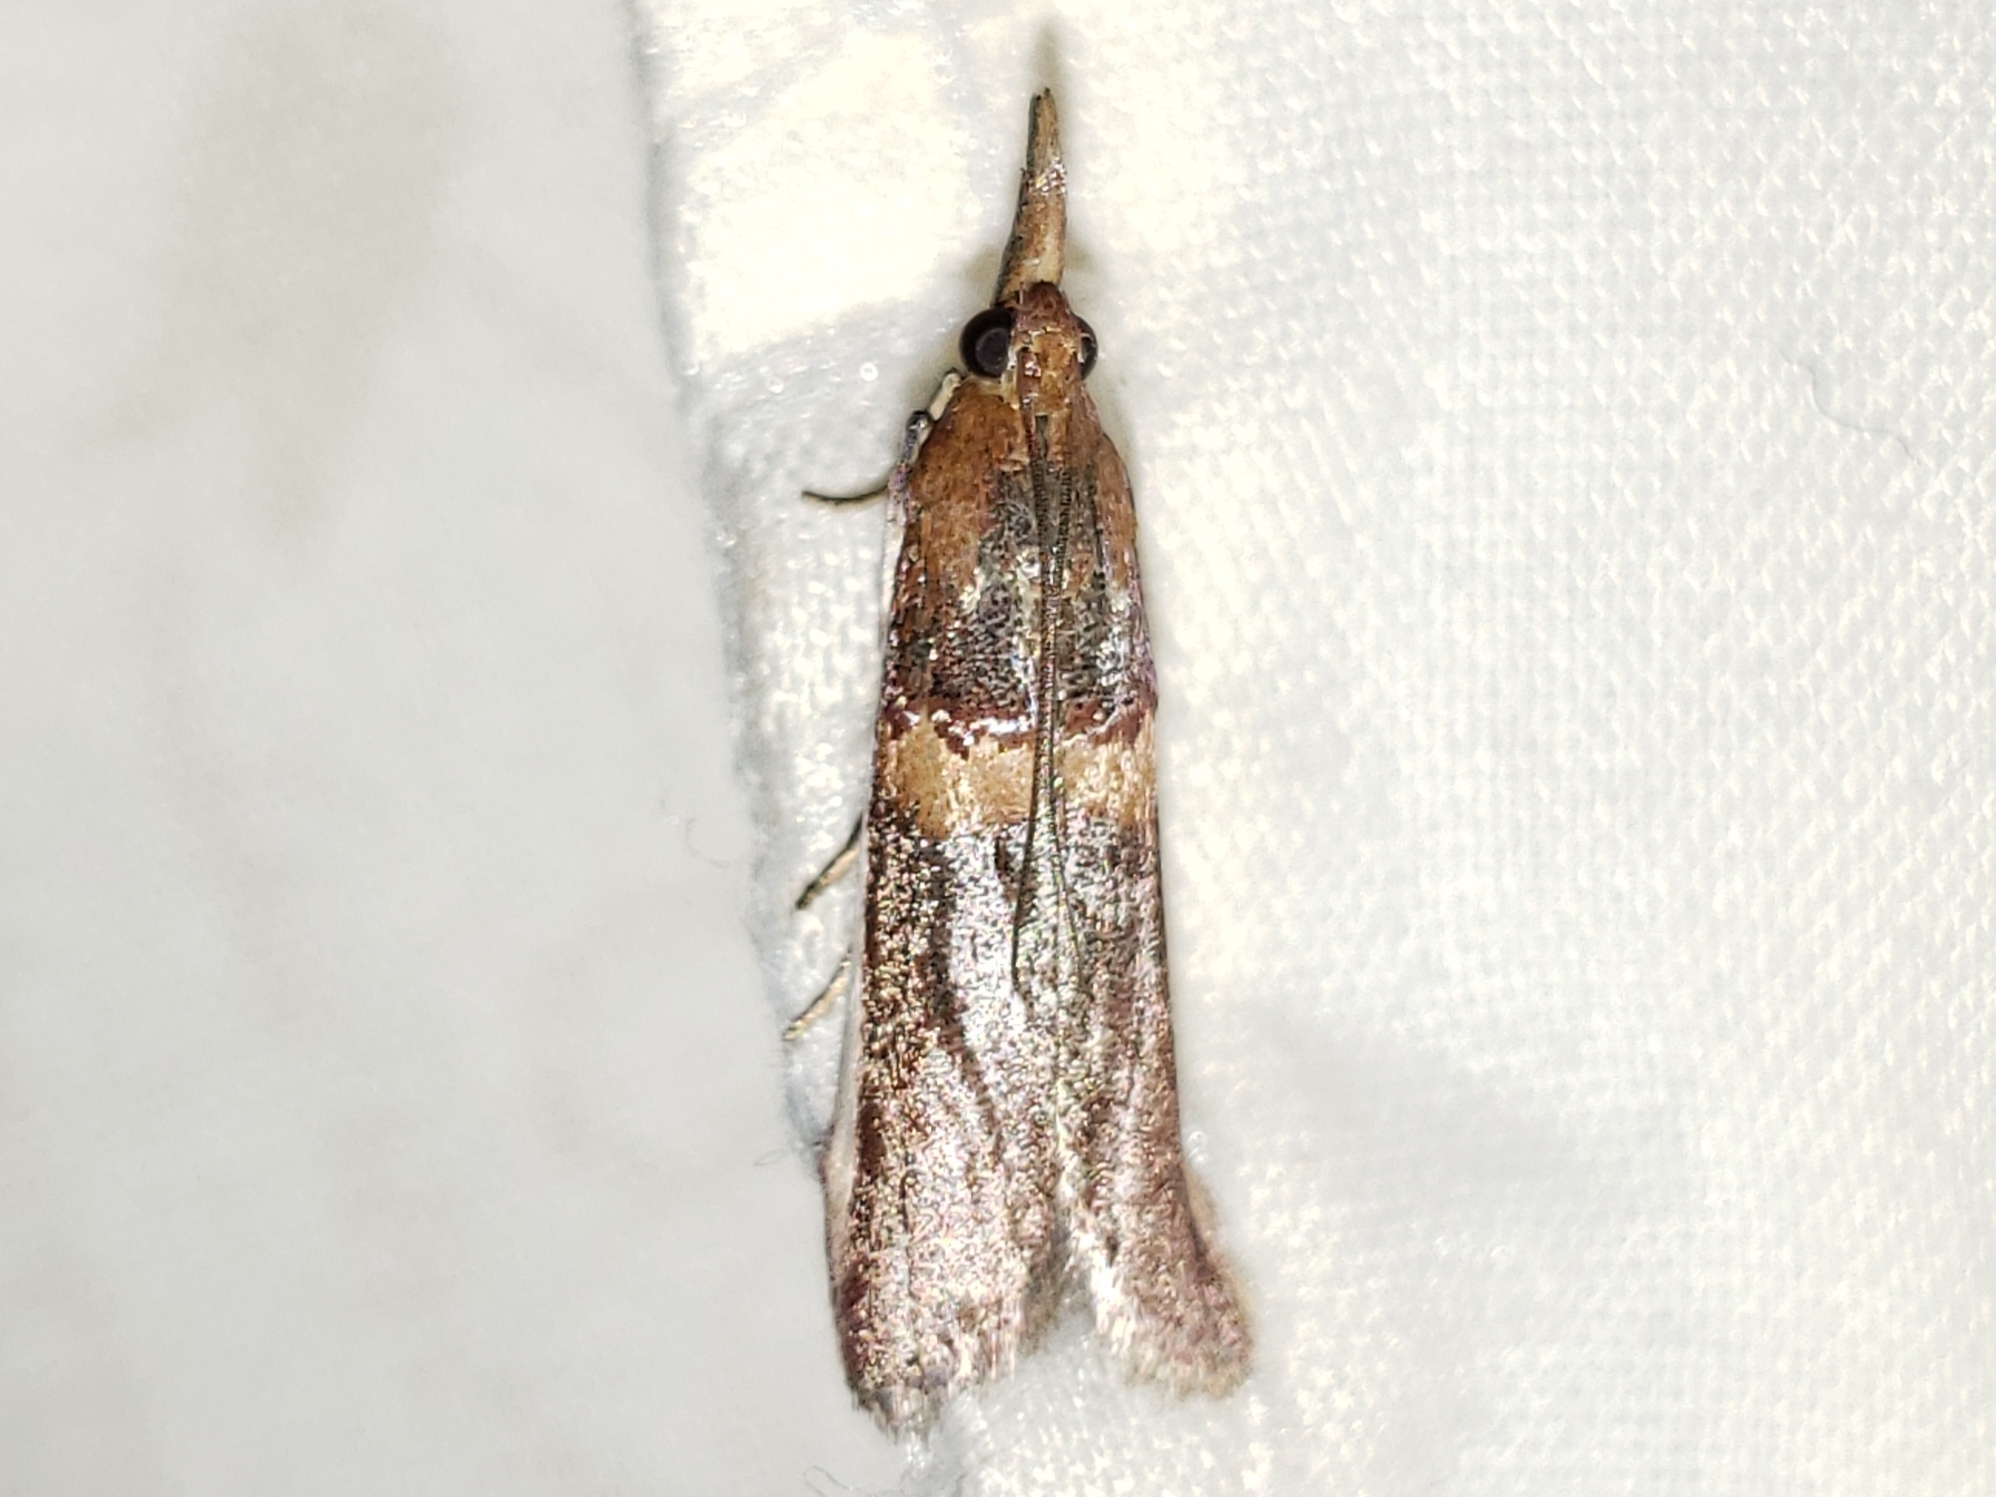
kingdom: Animalia
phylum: Arthropoda
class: Insecta
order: Lepidoptera
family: Pyralidae
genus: Etiella
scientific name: Etiella zinckenella
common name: Gold-banded etiella moth
